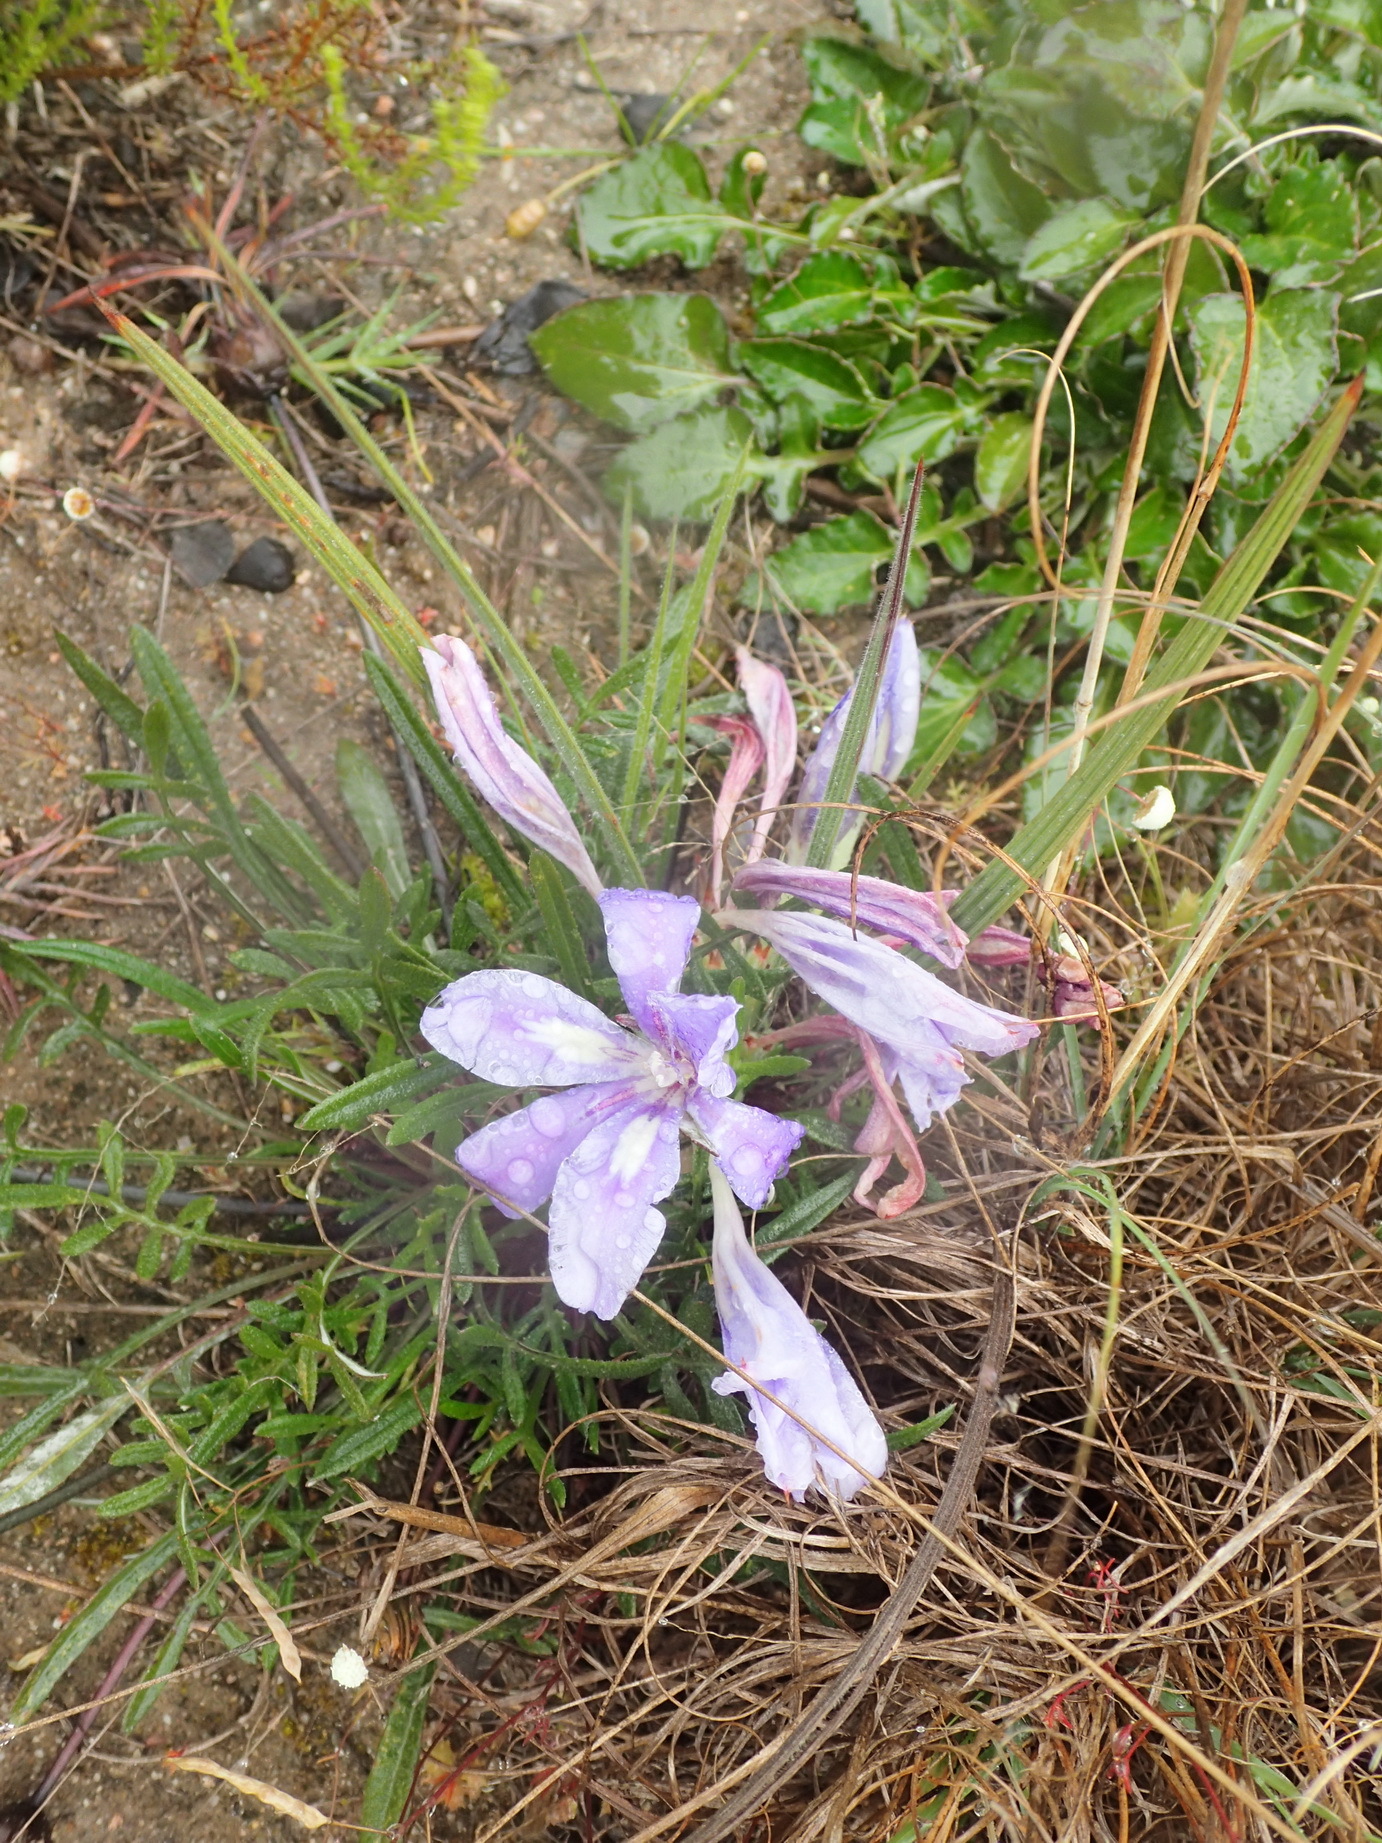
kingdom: Plantae
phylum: Tracheophyta
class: Liliopsida
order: Asparagales
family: Iridaceae
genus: Babiana
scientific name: Babiana sambucina
